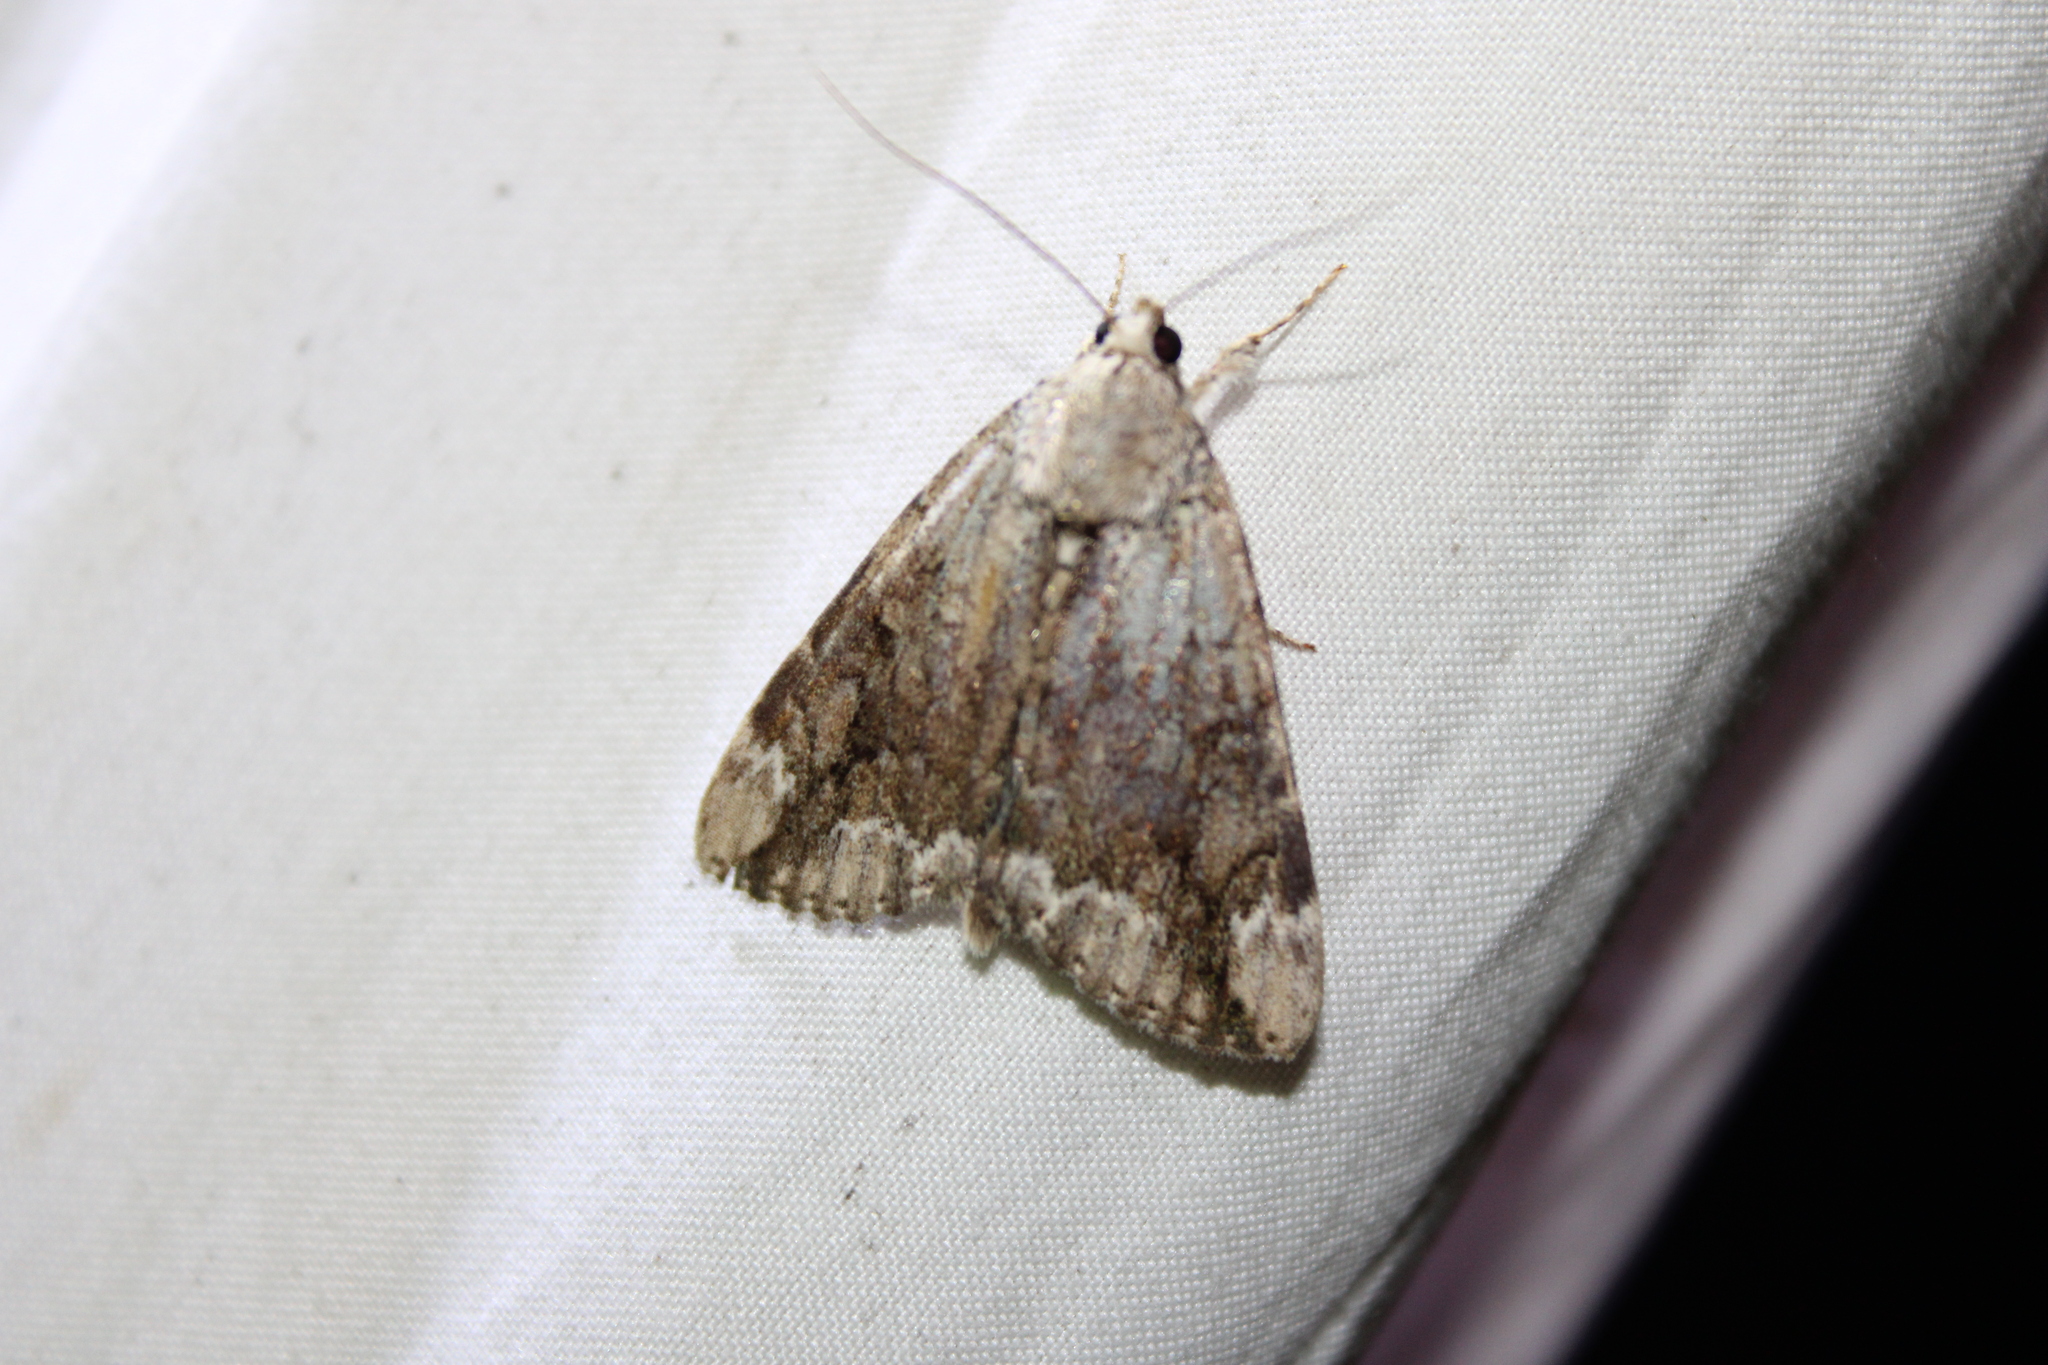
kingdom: Animalia
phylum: Arthropoda
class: Insecta
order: Lepidoptera
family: Erebidae
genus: Catocala
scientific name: Catocala micronympha
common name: Little nymph underwing
